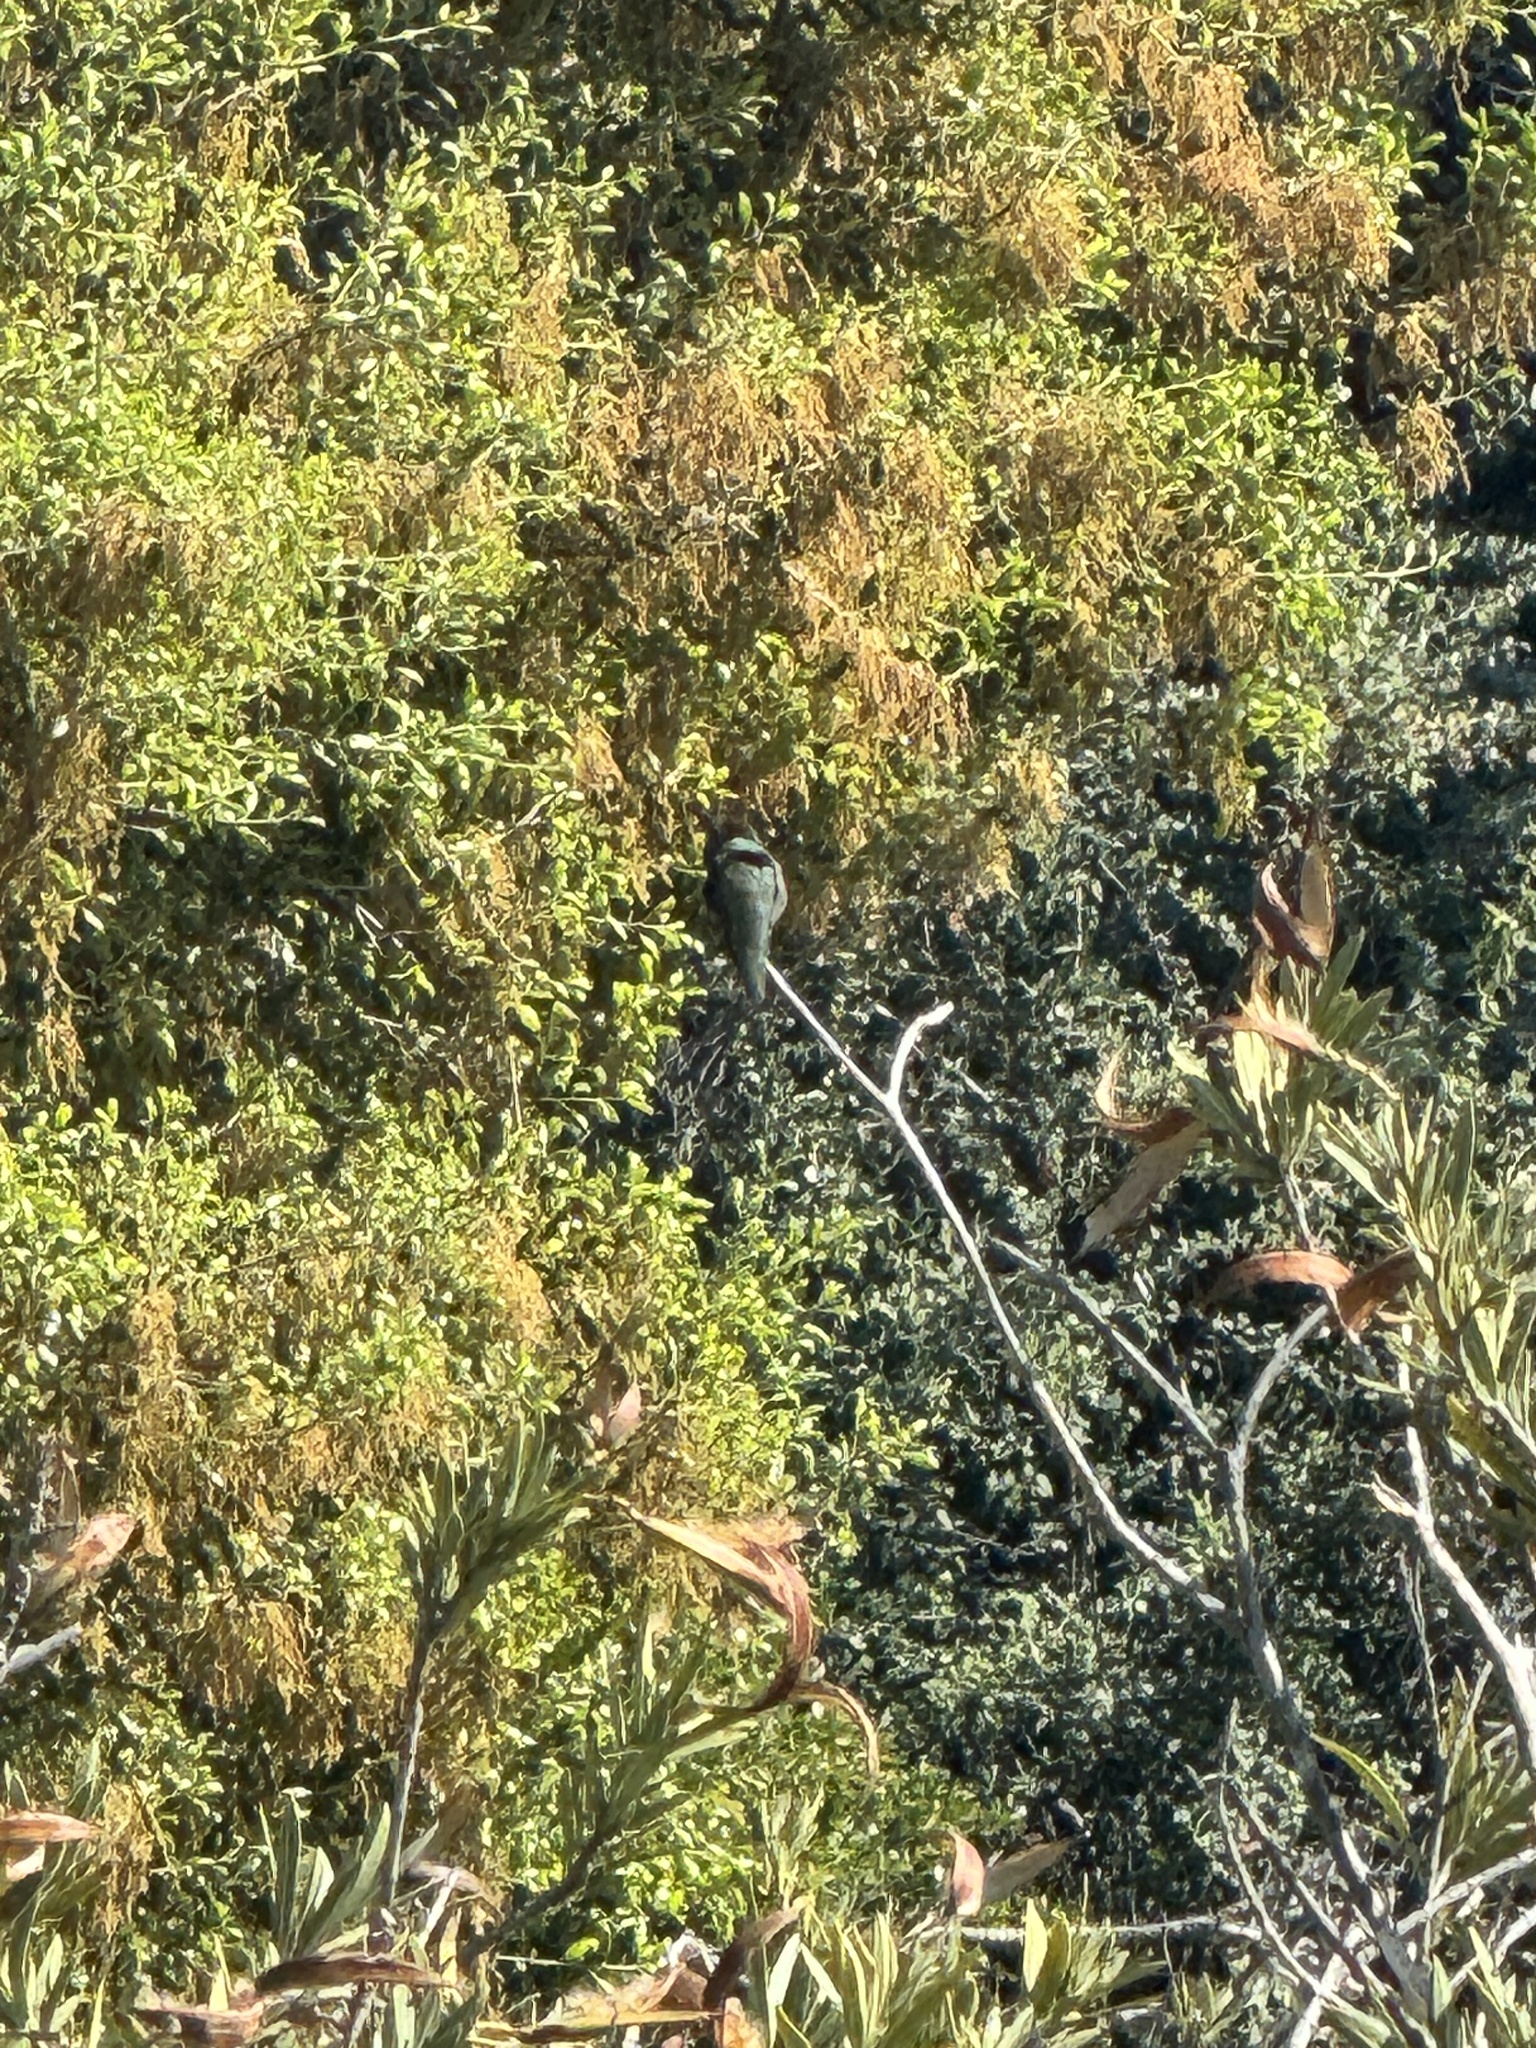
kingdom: Animalia
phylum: Chordata
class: Aves
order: Apodiformes
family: Trochilidae
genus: Calypte
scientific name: Calypte anna
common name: Anna's hummingbird
